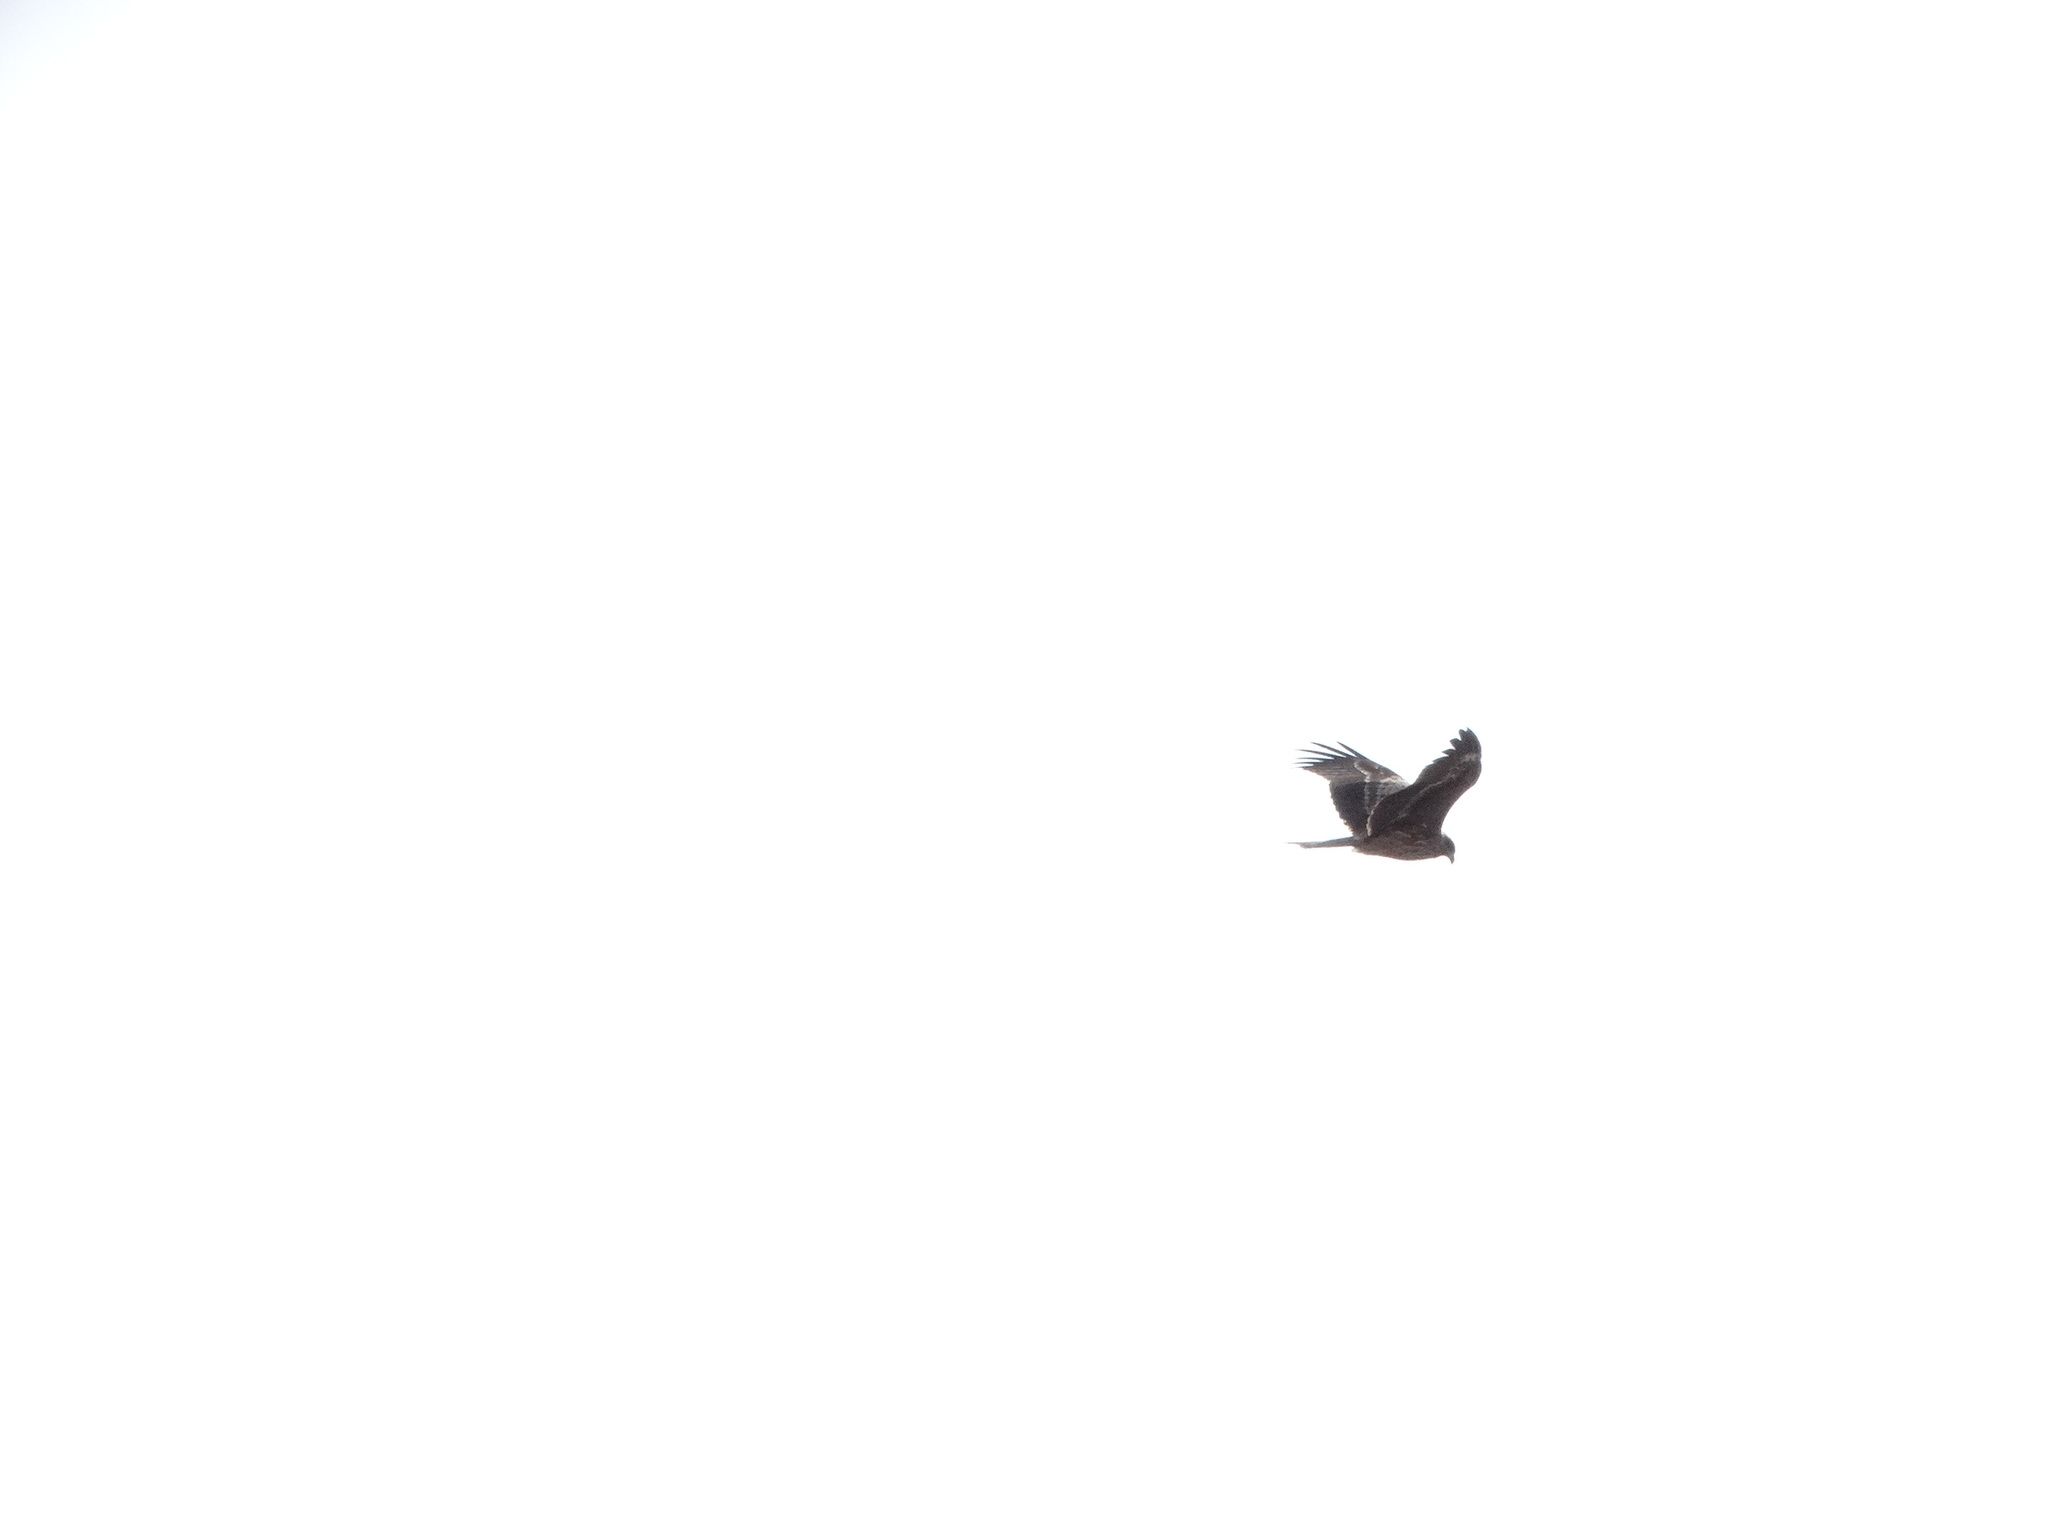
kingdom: Animalia
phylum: Chordata
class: Aves
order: Accipitriformes
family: Accipitridae
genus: Milvus
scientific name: Milvus migrans
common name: Black kite
